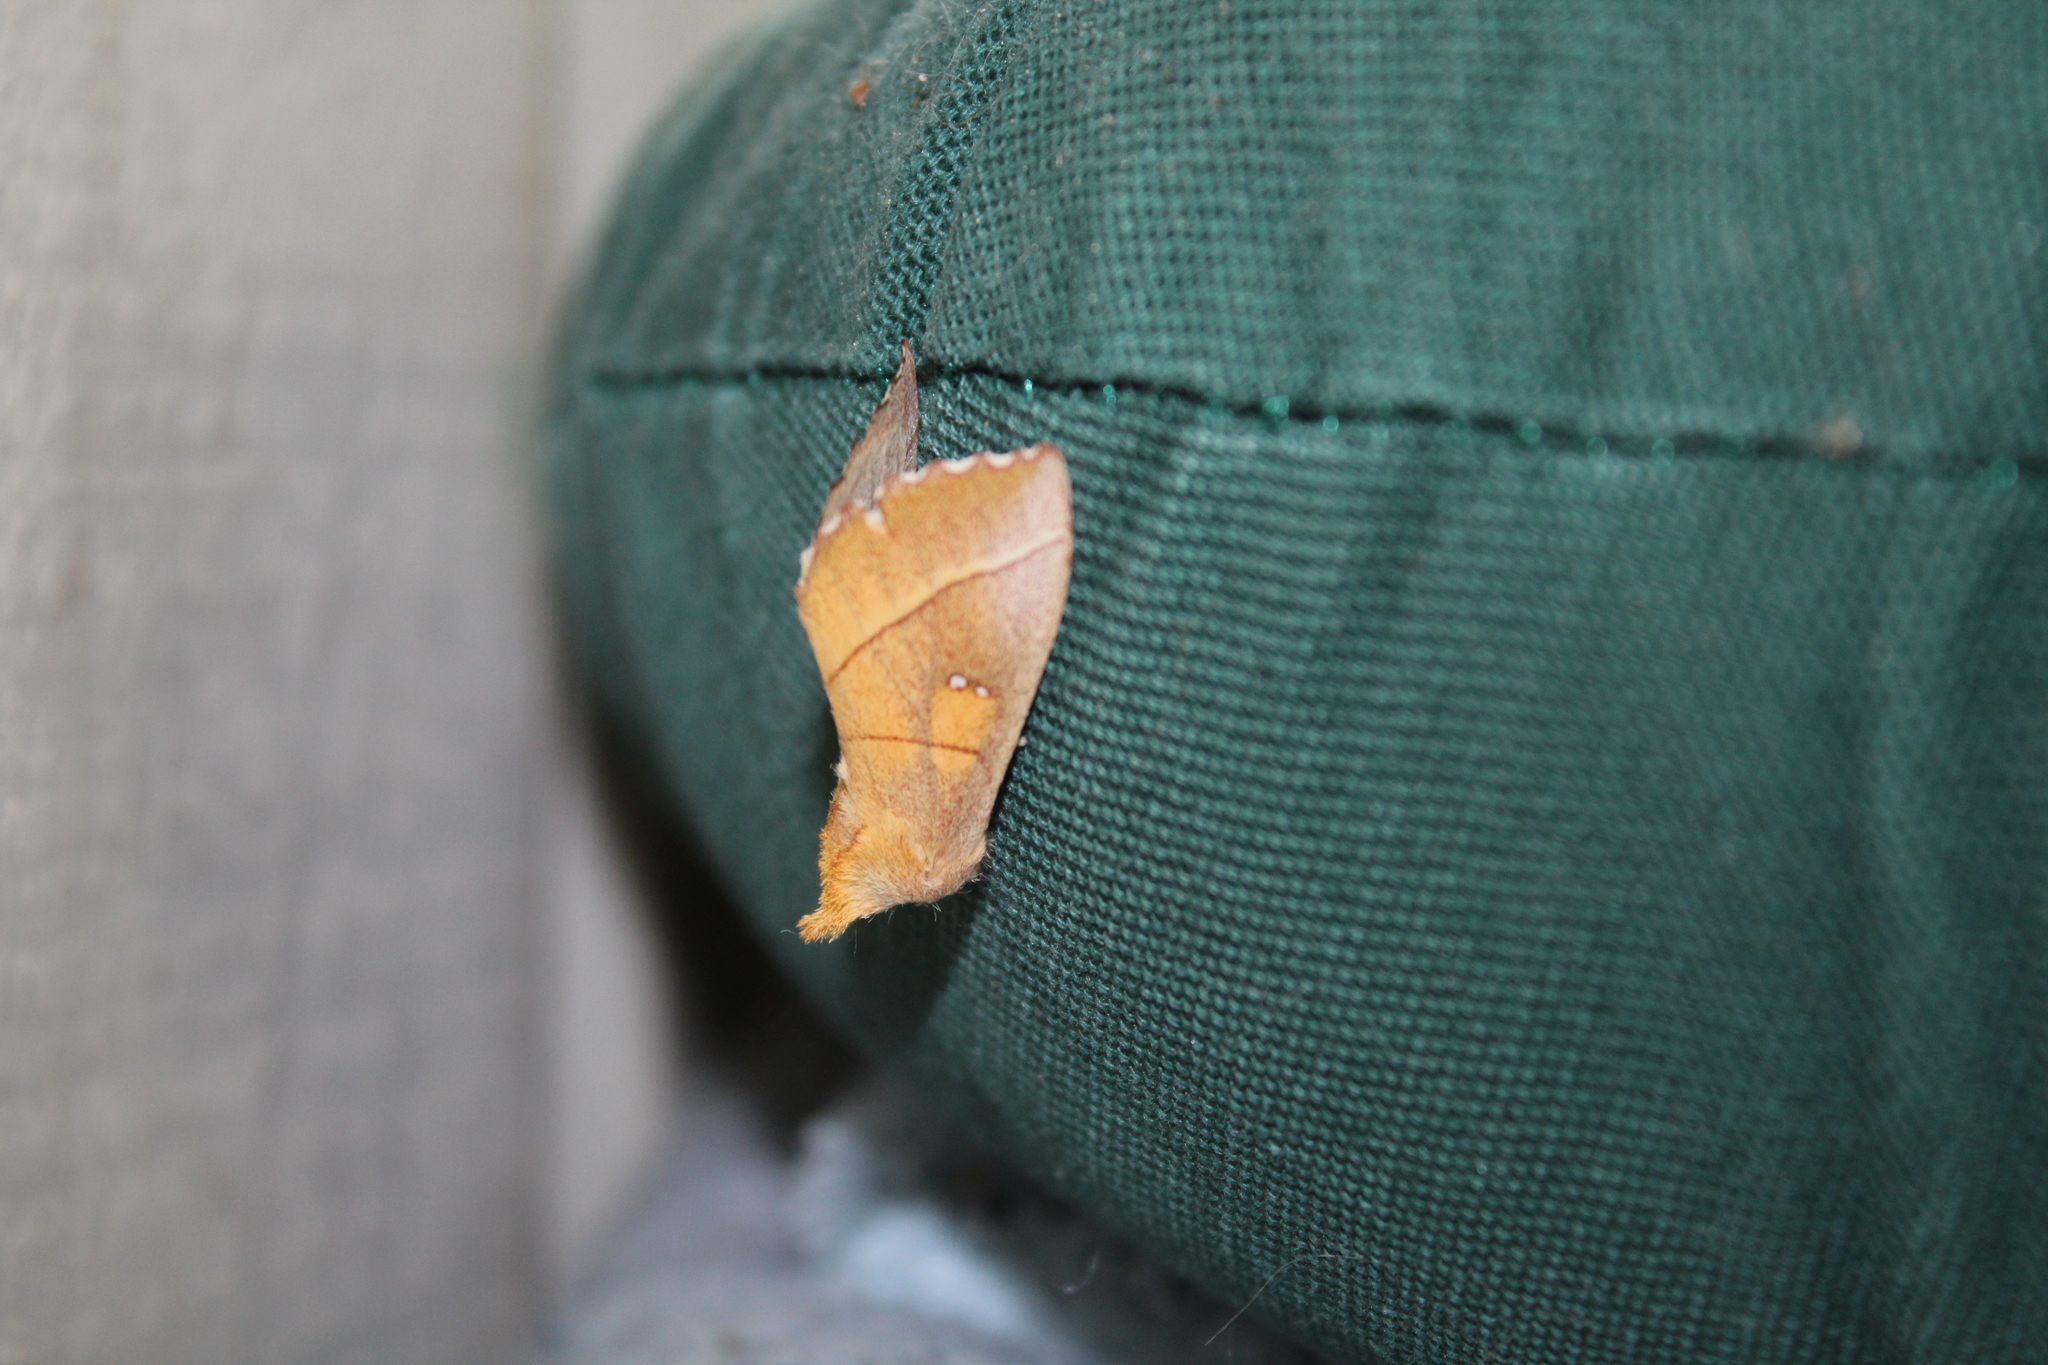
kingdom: Animalia
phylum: Arthropoda
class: Insecta
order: Lepidoptera
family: Notodontidae
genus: Nadata
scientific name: Nadata gibbosa
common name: White-dotted prominent
